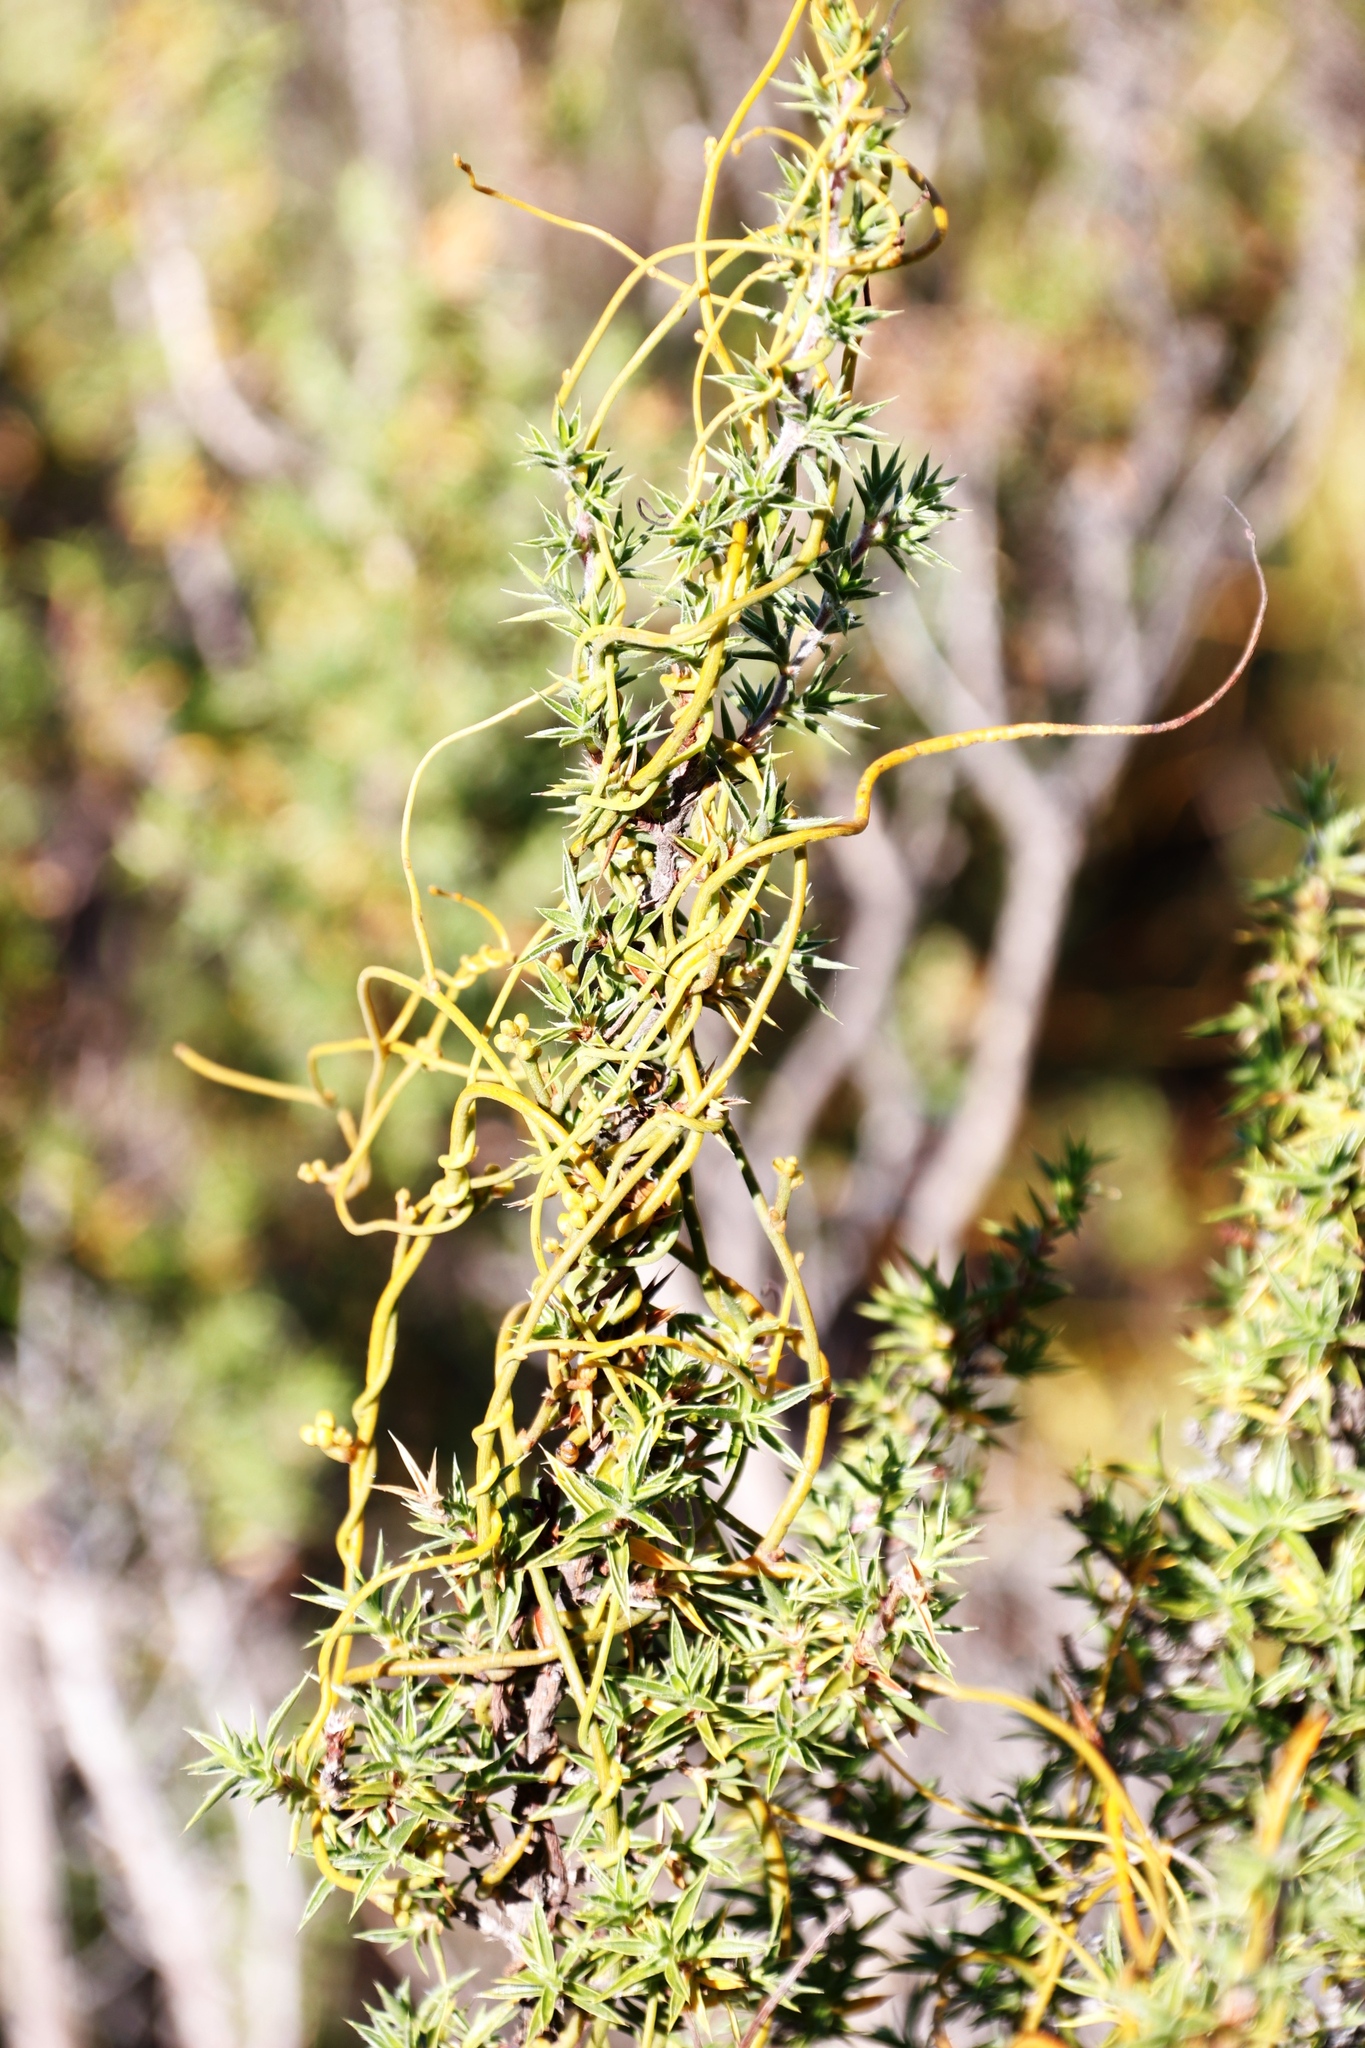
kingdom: Plantae
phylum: Tracheophyta
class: Magnoliopsida
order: Laurales
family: Lauraceae
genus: Cassytha
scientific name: Cassytha ciliolata
